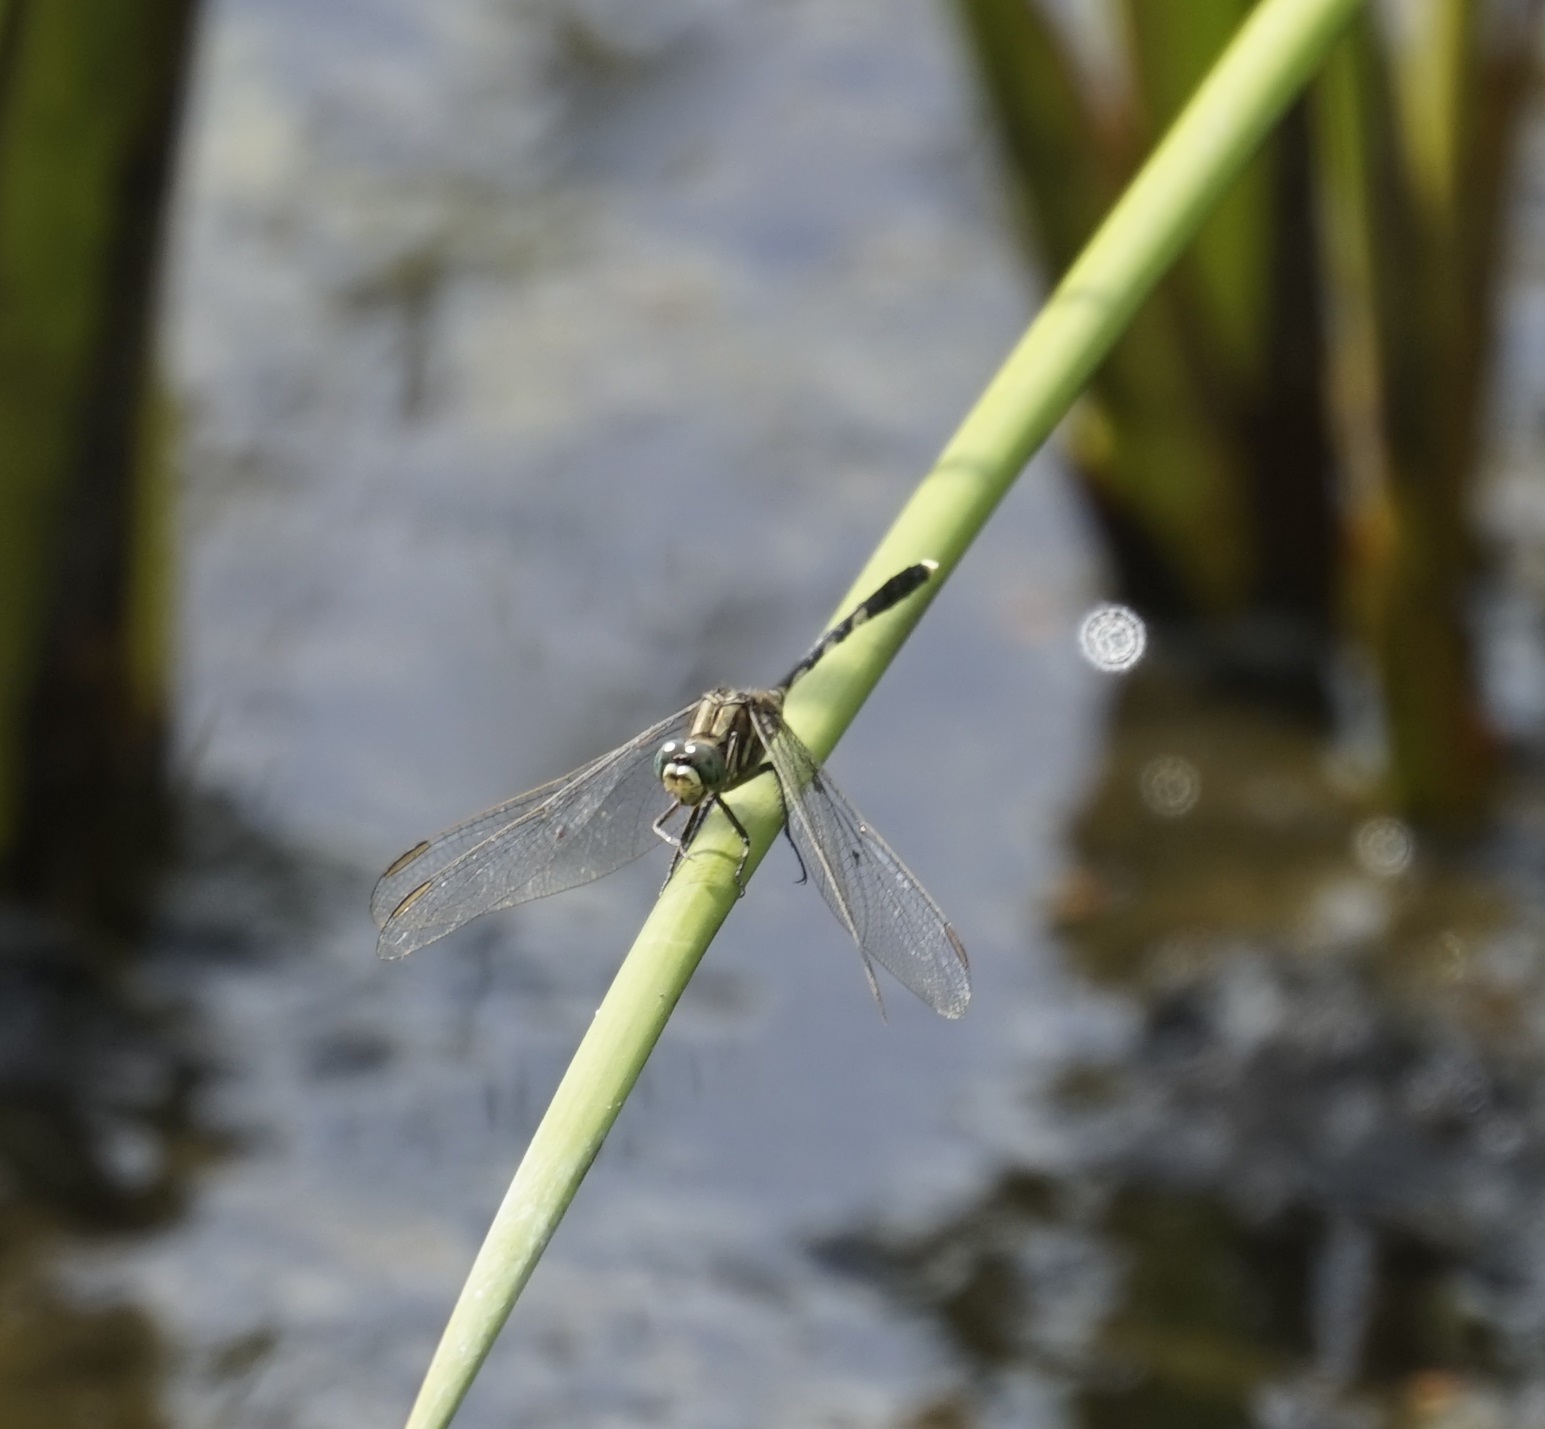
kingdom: Animalia
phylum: Arthropoda
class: Insecta
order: Odonata
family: Libellulidae
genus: Orthetrum
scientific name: Orthetrum sabina
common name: Slender skimmer
